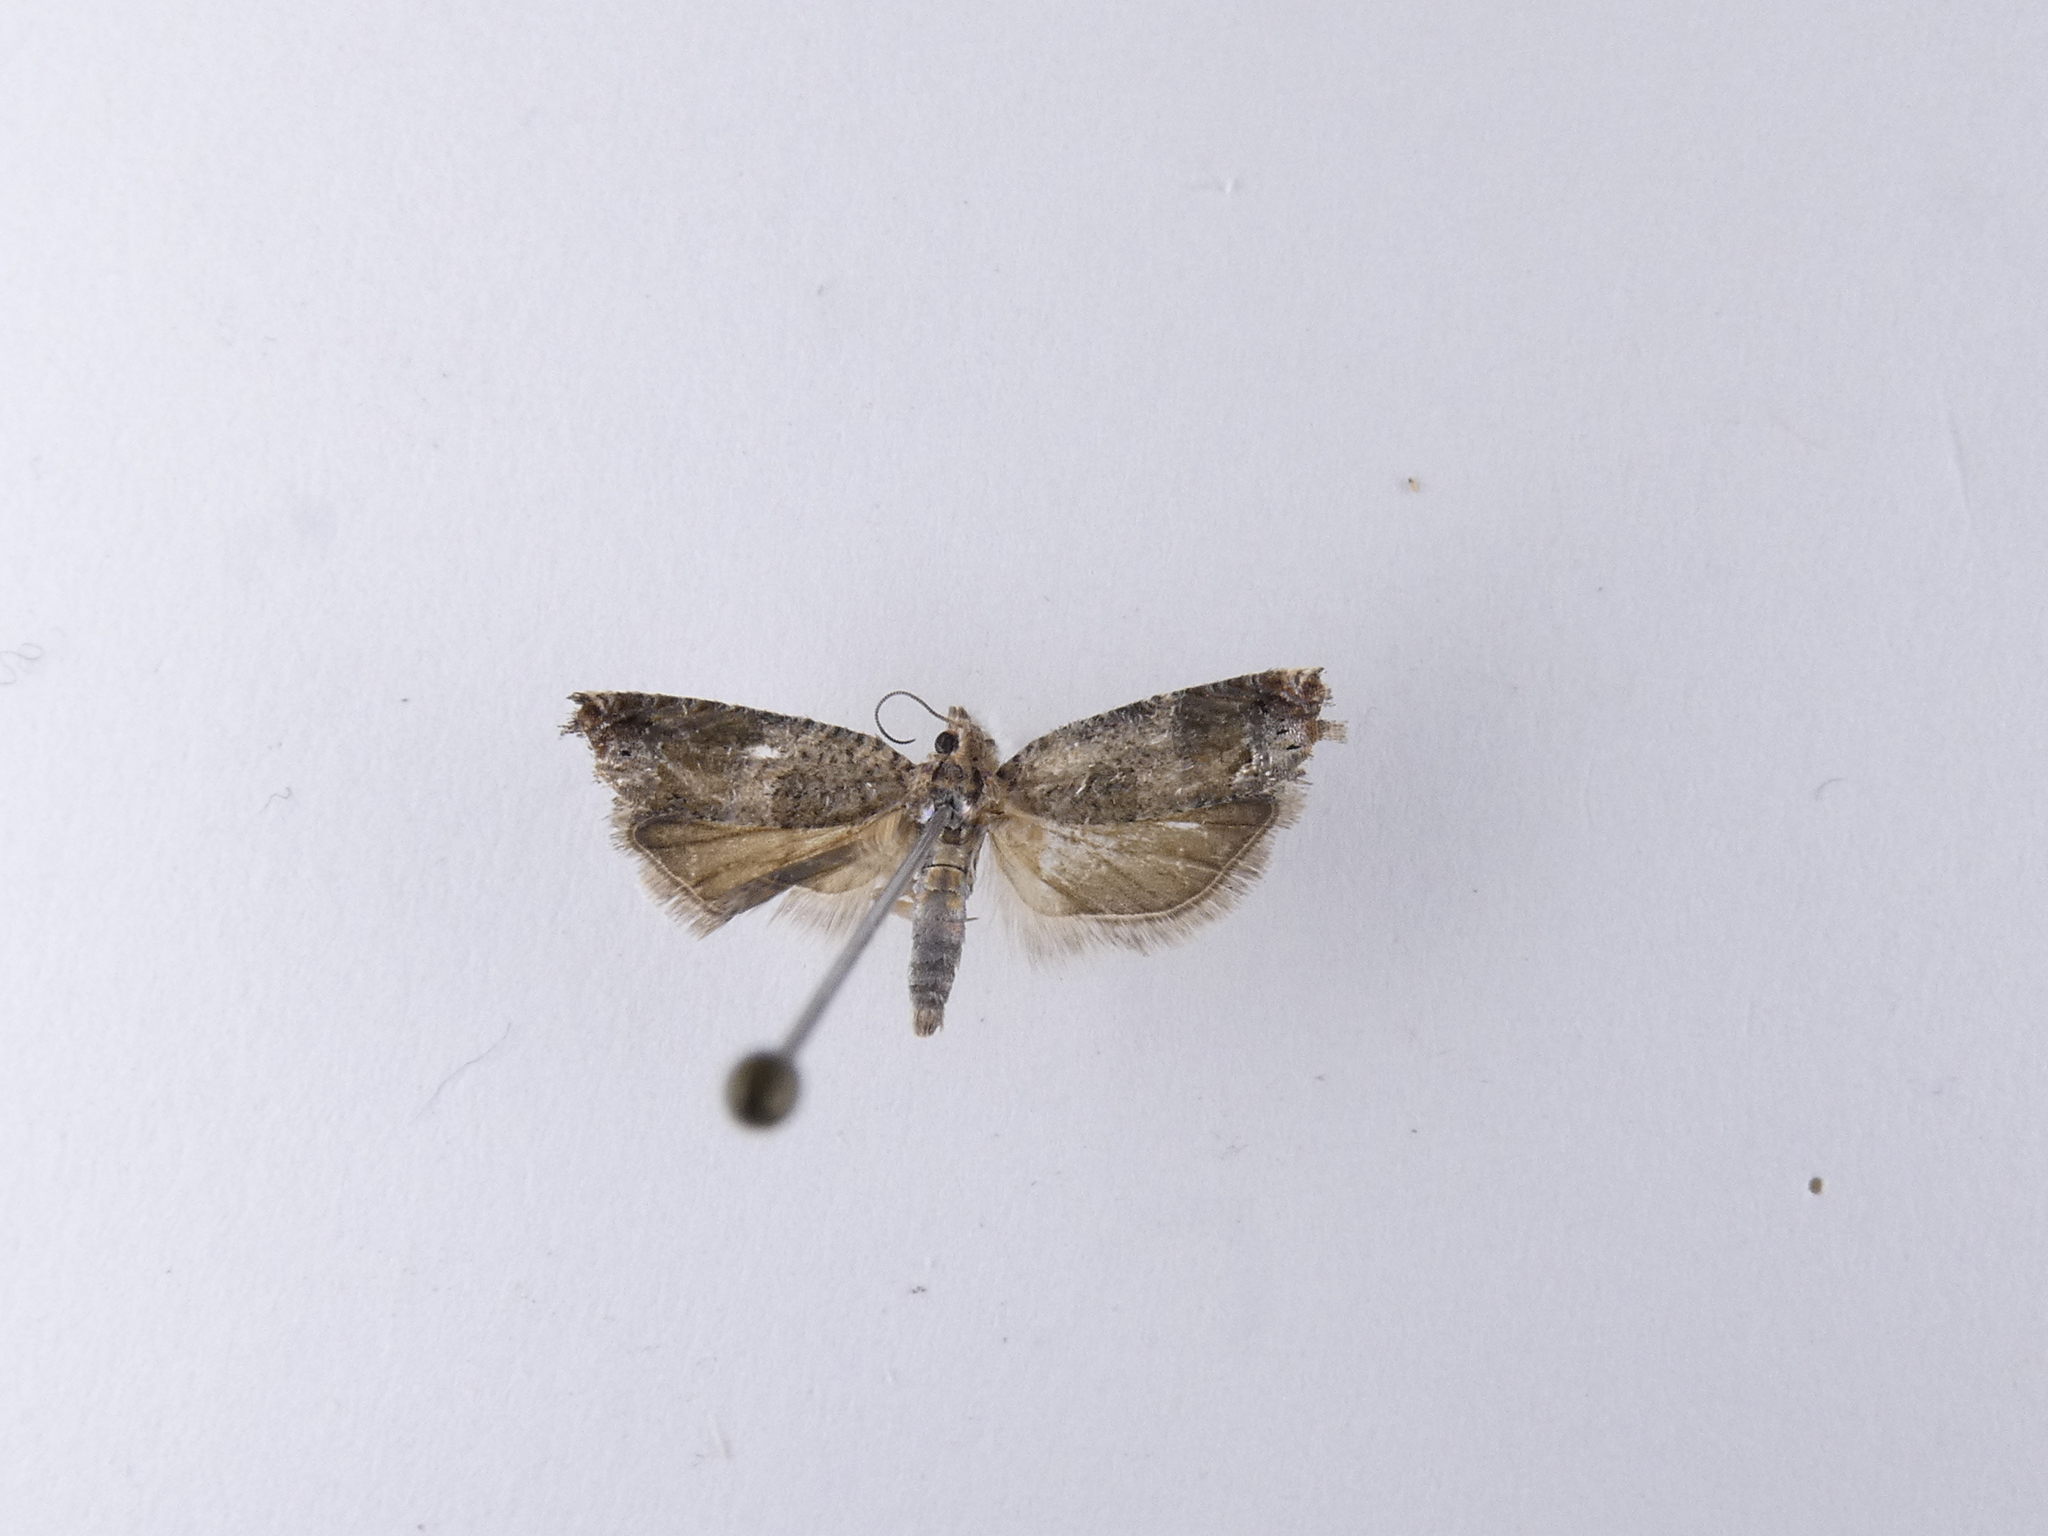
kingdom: Animalia
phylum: Arthropoda
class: Insecta
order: Lepidoptera
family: Tortricidae
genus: Crocidosema
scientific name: Crocidosema plebejana
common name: Southern bell
